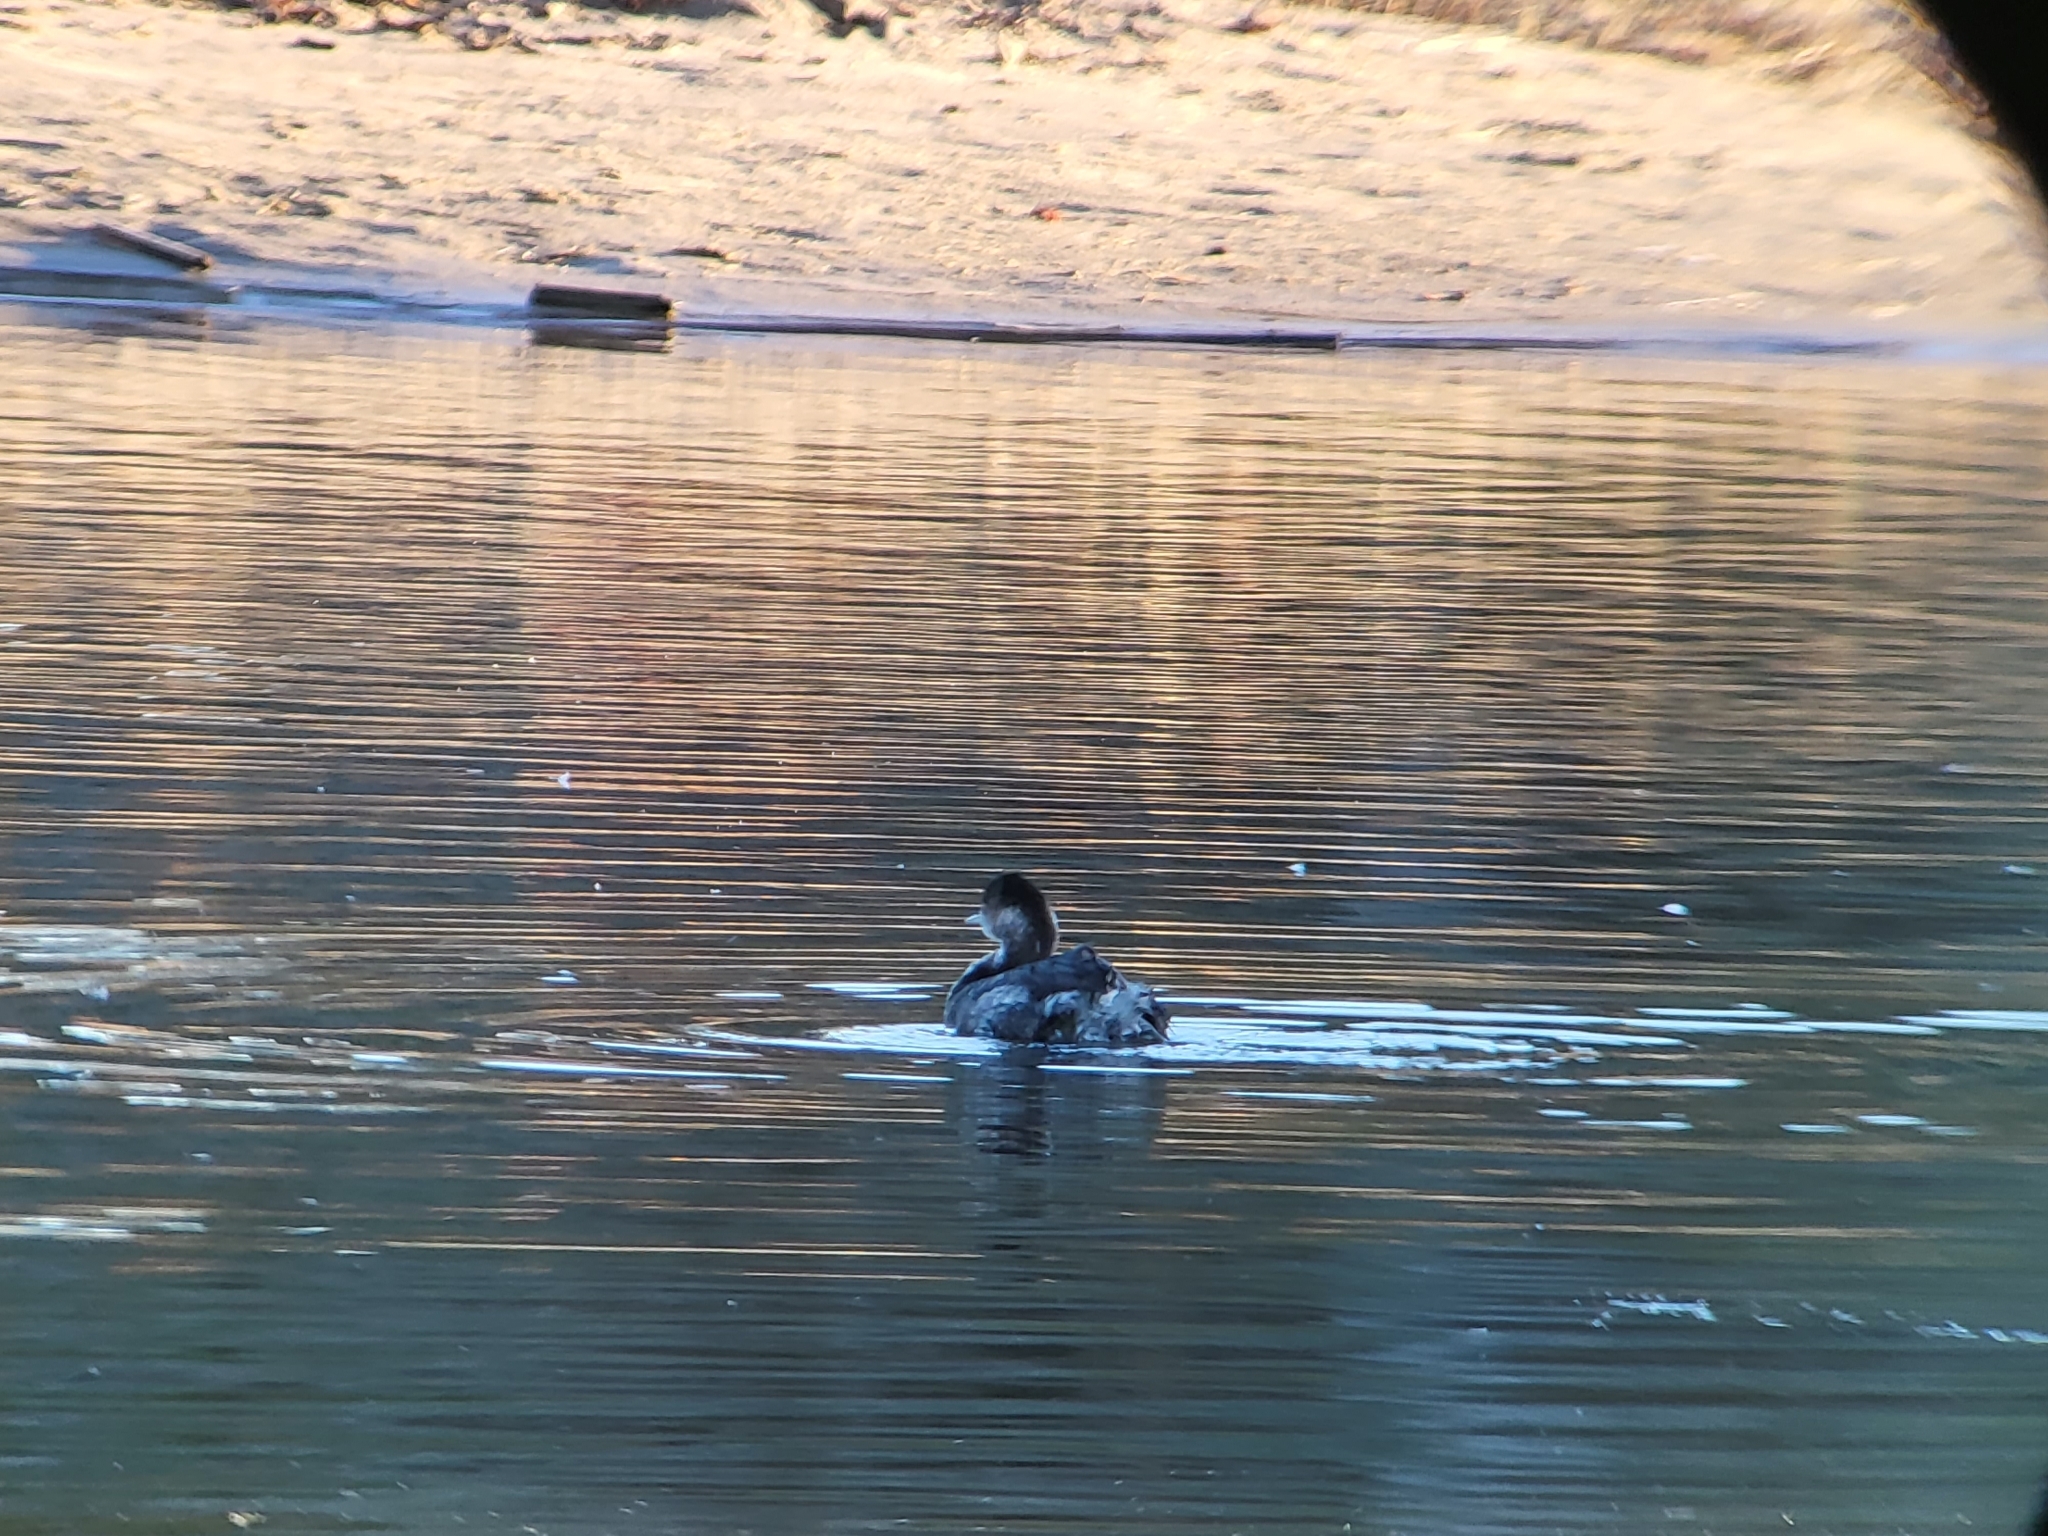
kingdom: Animalia
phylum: Chordata
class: Aves
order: Podicipediformes
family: Podicipedidae
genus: Podiceps
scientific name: Podiceps nigricollis
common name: Black-necked grebe
